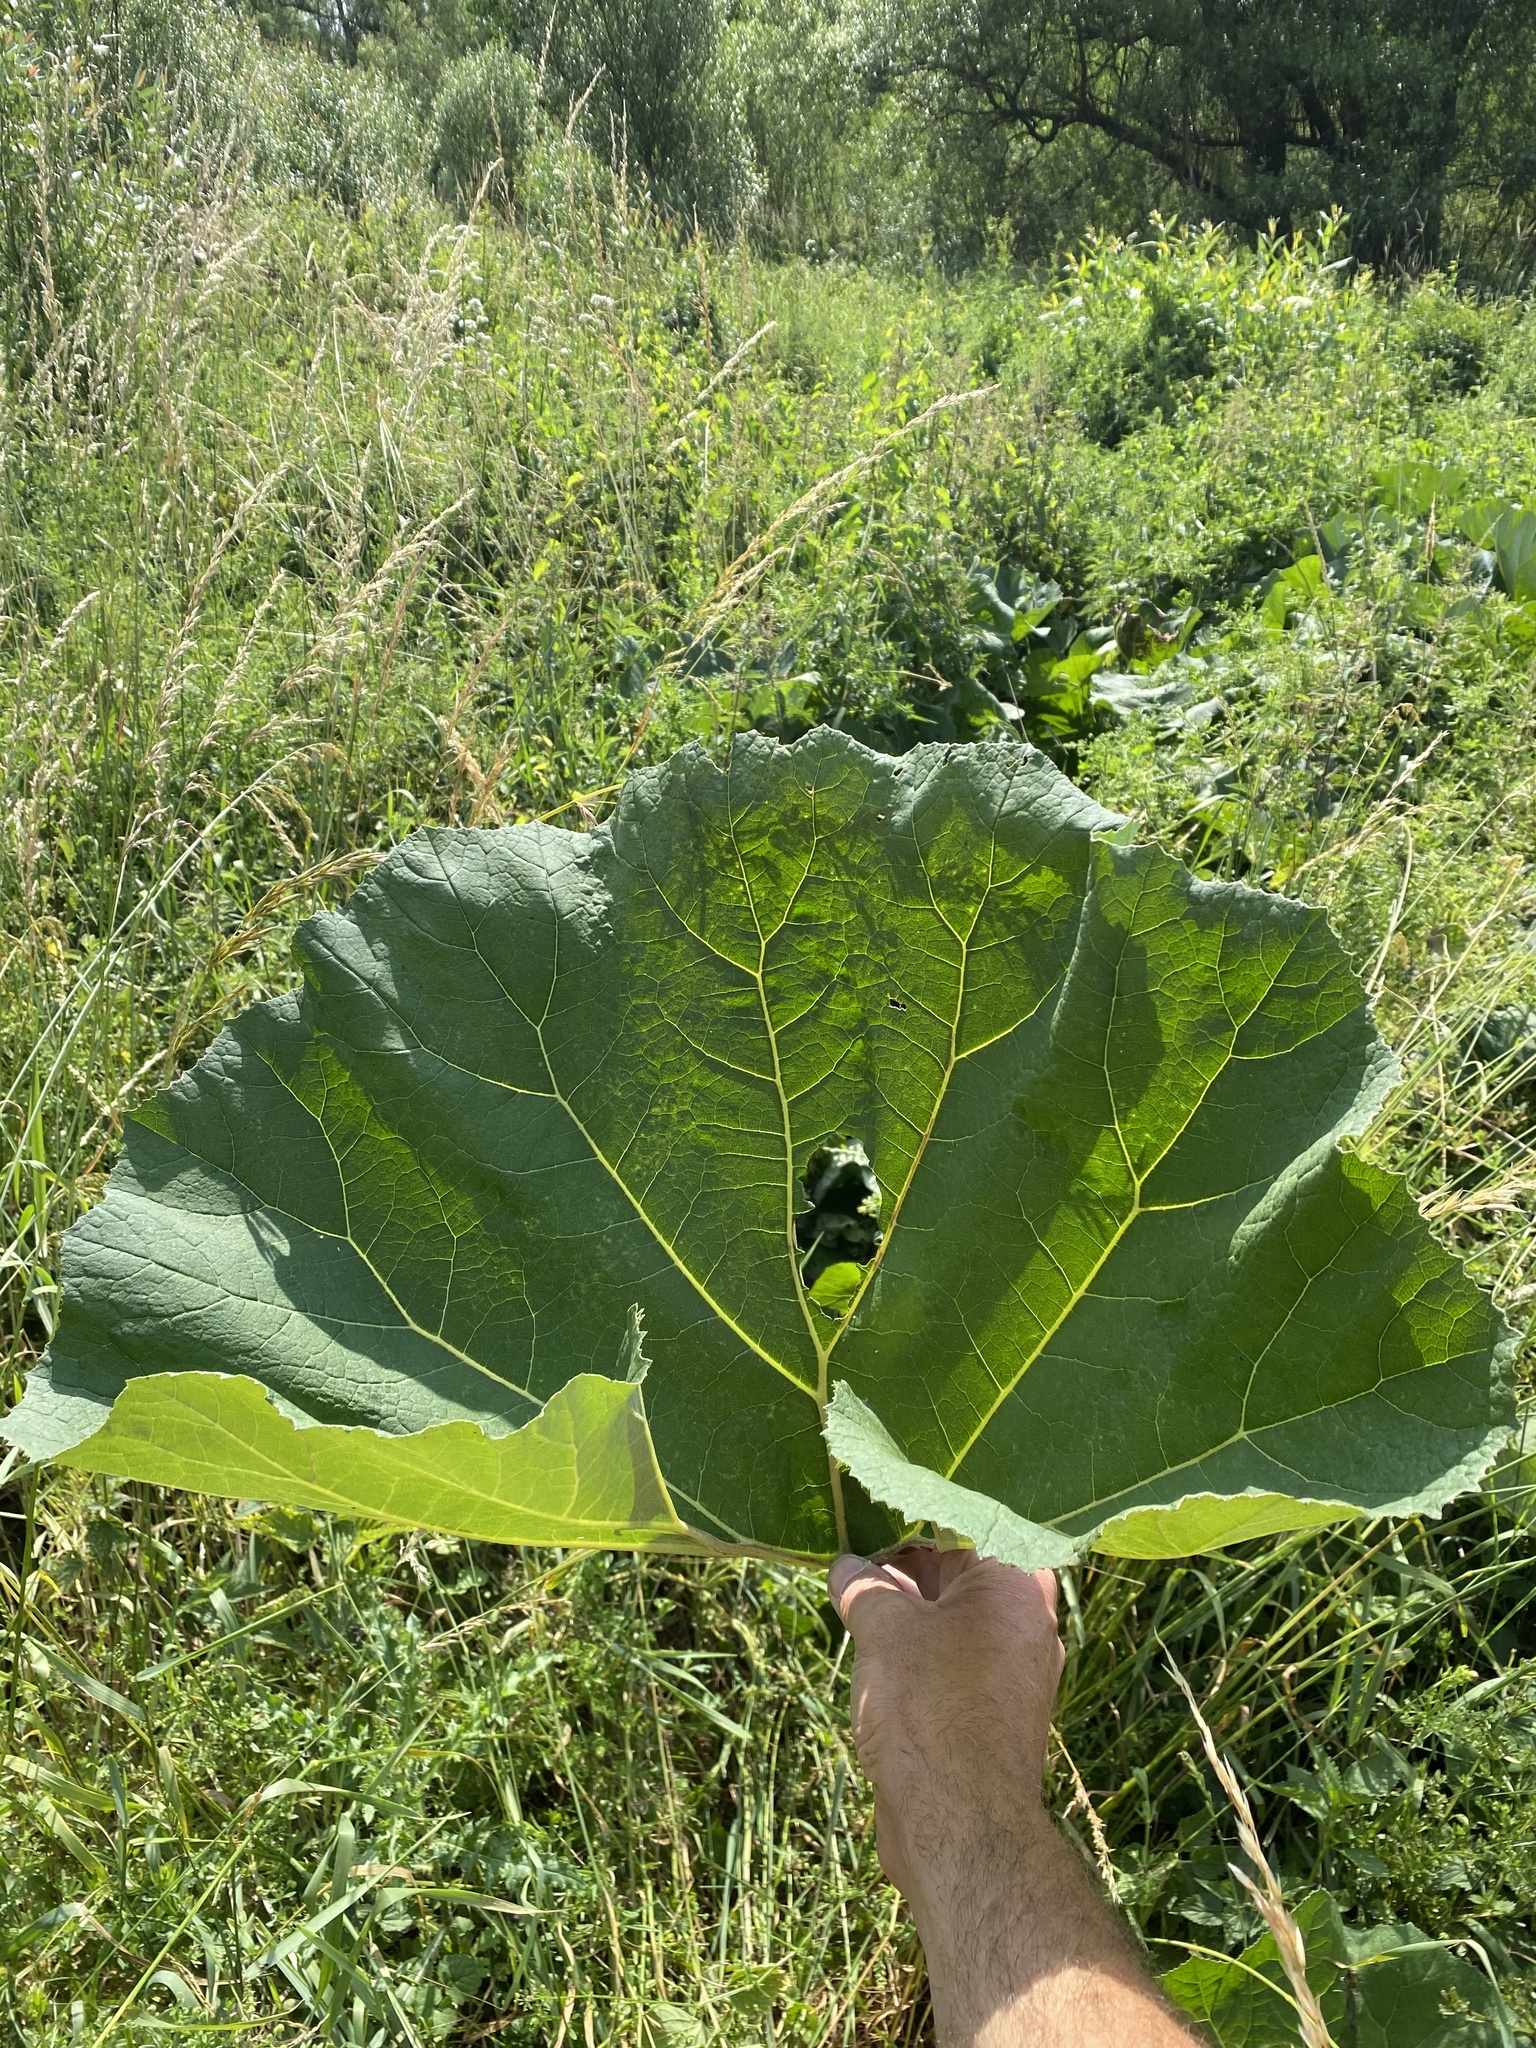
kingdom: Plantae
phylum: Tracheophyta
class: Magnoliopsida
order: Asterales
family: Asteraceae
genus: Petasites
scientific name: Petasites hybridus
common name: Butterbur
